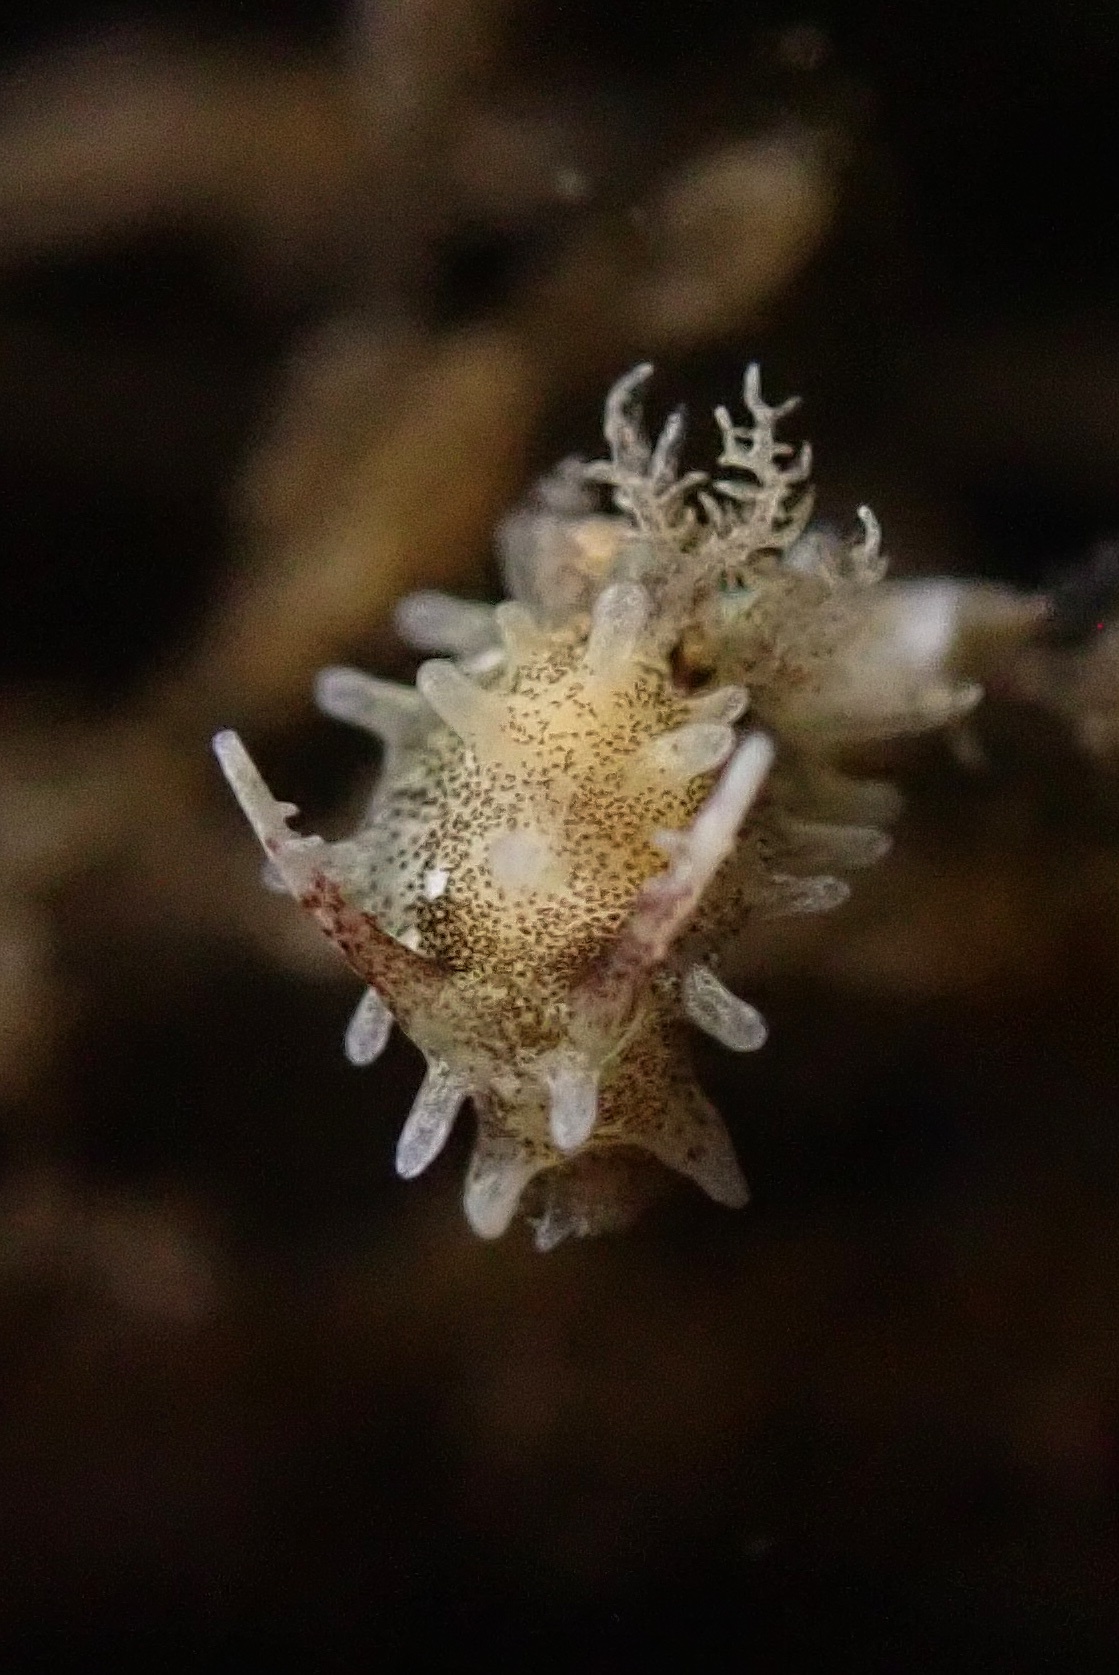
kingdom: Animalia
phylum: Mollusca
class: Gastropoda
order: Nudibranchia
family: Goniodorididae
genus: Okenia
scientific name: Okenia
